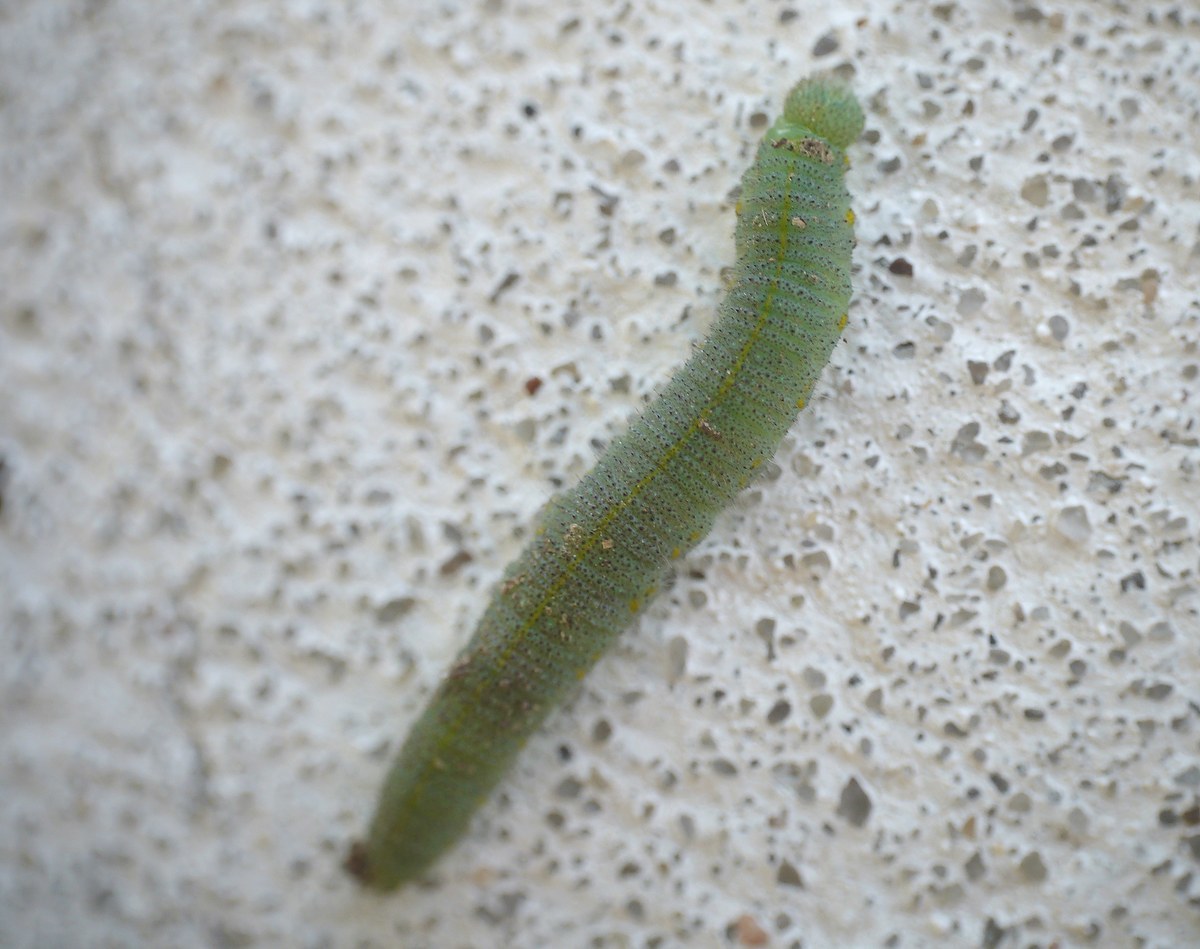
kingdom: Animalia
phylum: Arthropoda
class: Insecta
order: Lepidoptera
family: Pieridae
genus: Pieris
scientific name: Pieris rapae
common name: Small white
